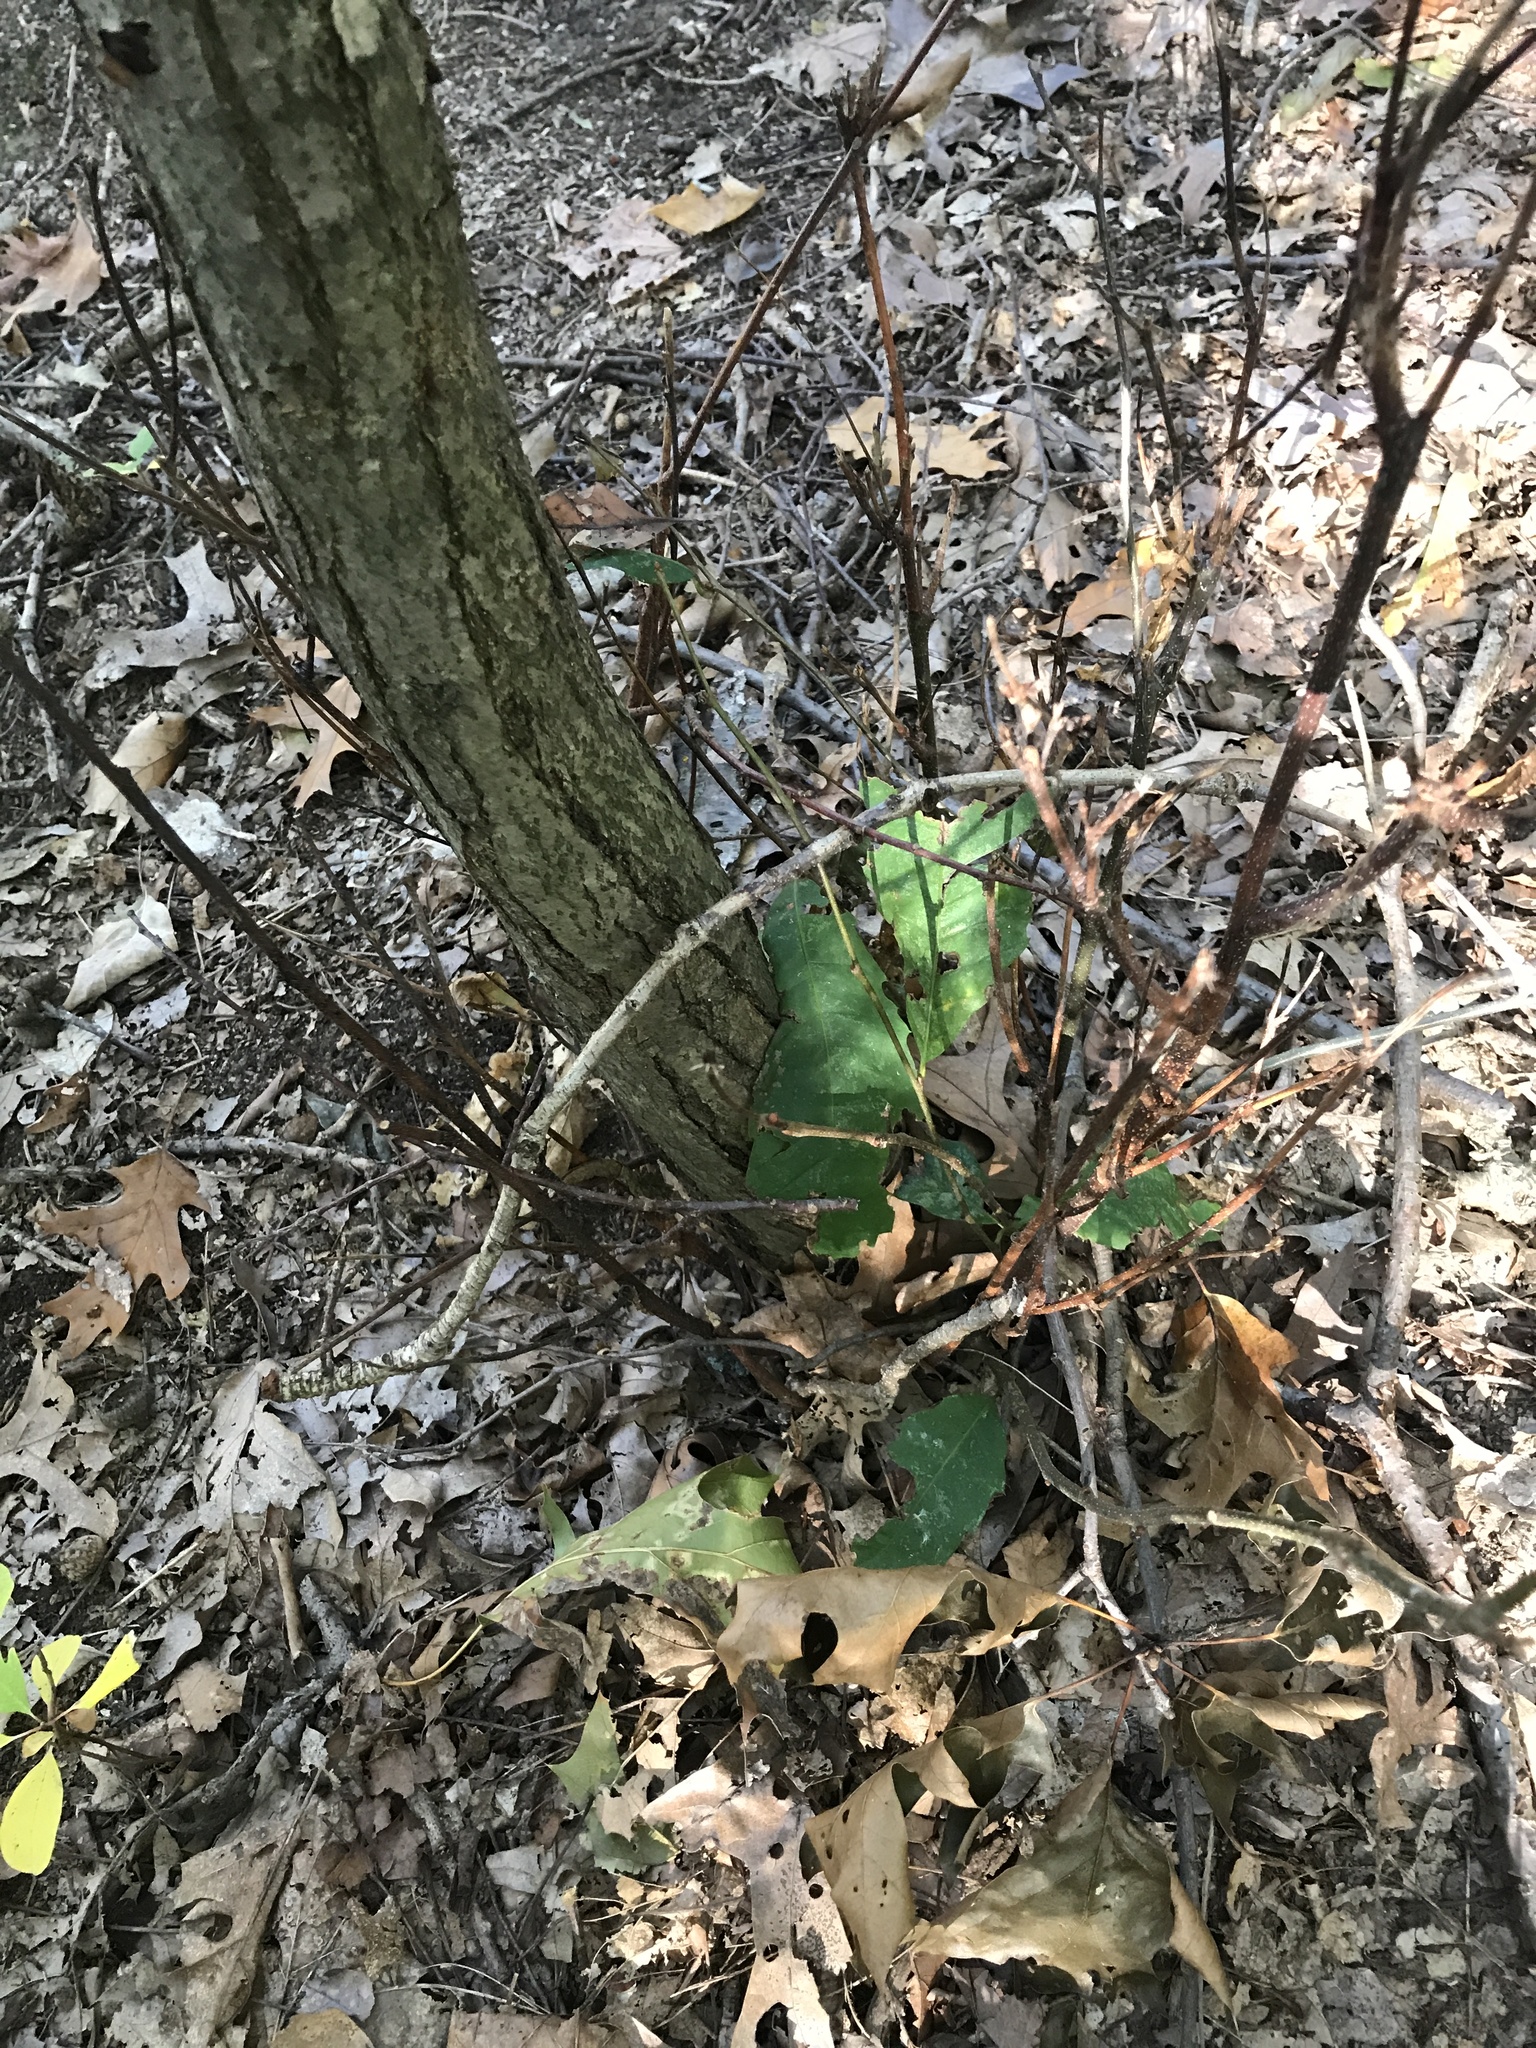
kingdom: Plantae
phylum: Tracheophyta
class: Magnoliopsida
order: Fagales
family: Fagaceae
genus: Castanea
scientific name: Castanea dentata
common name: American chestnut
